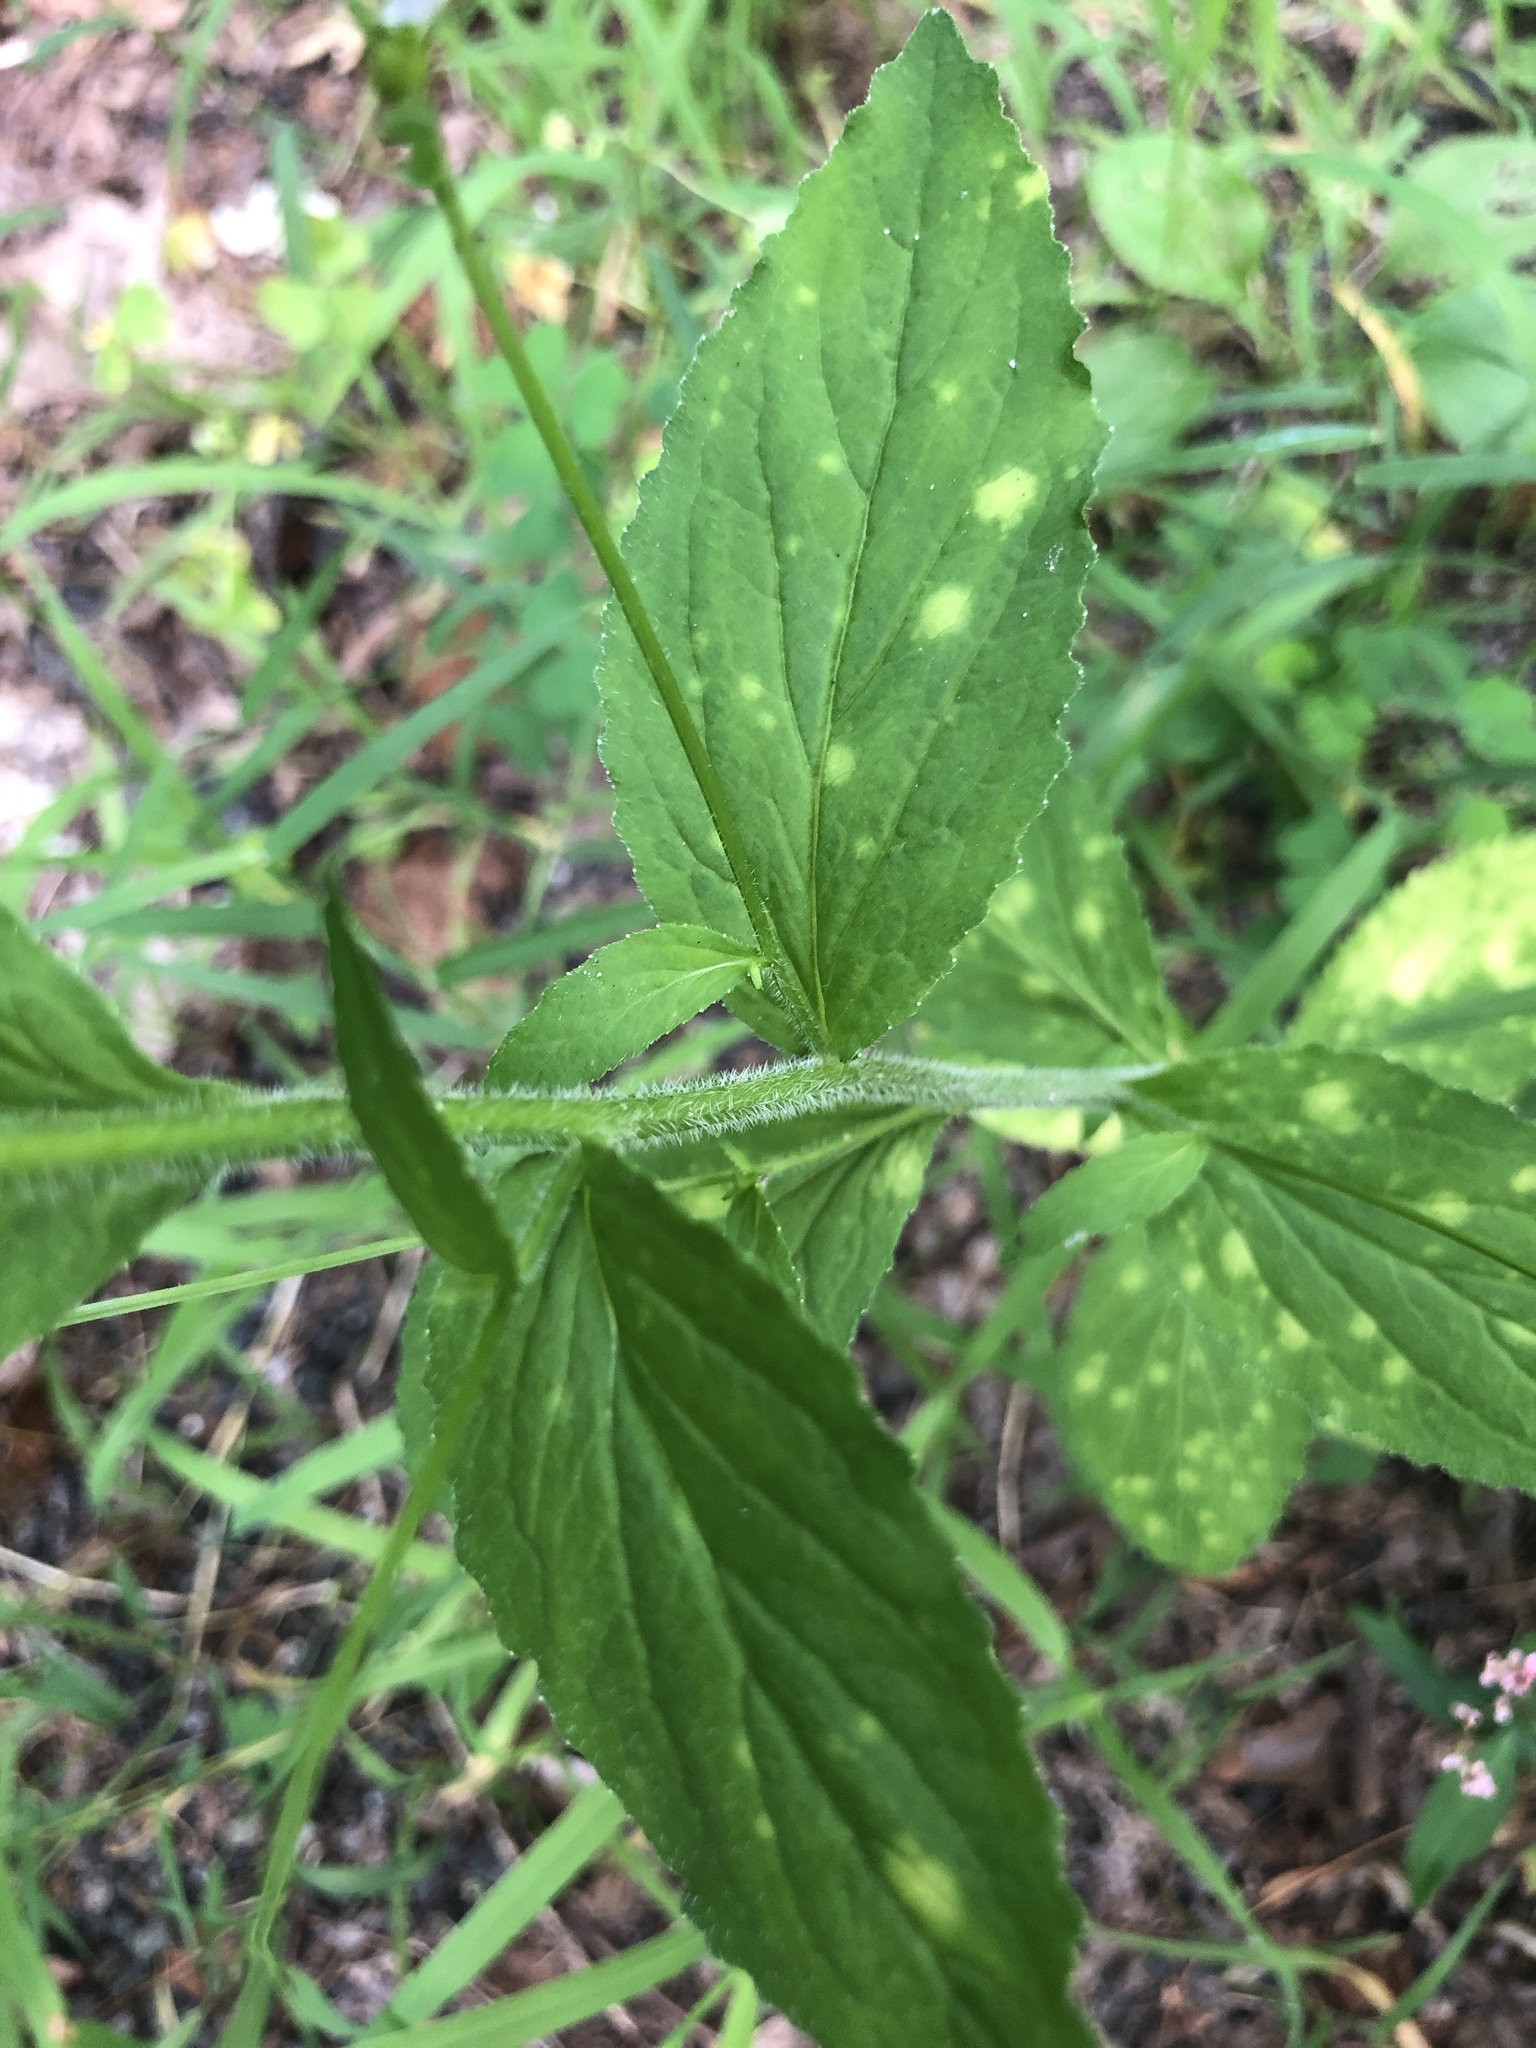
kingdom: Plantae
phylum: Tracheophyta
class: Magnoliopsida
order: Asterales
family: Campanulaceae
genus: Lobelia
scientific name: Lobelia inflata
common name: Indian tobacco
